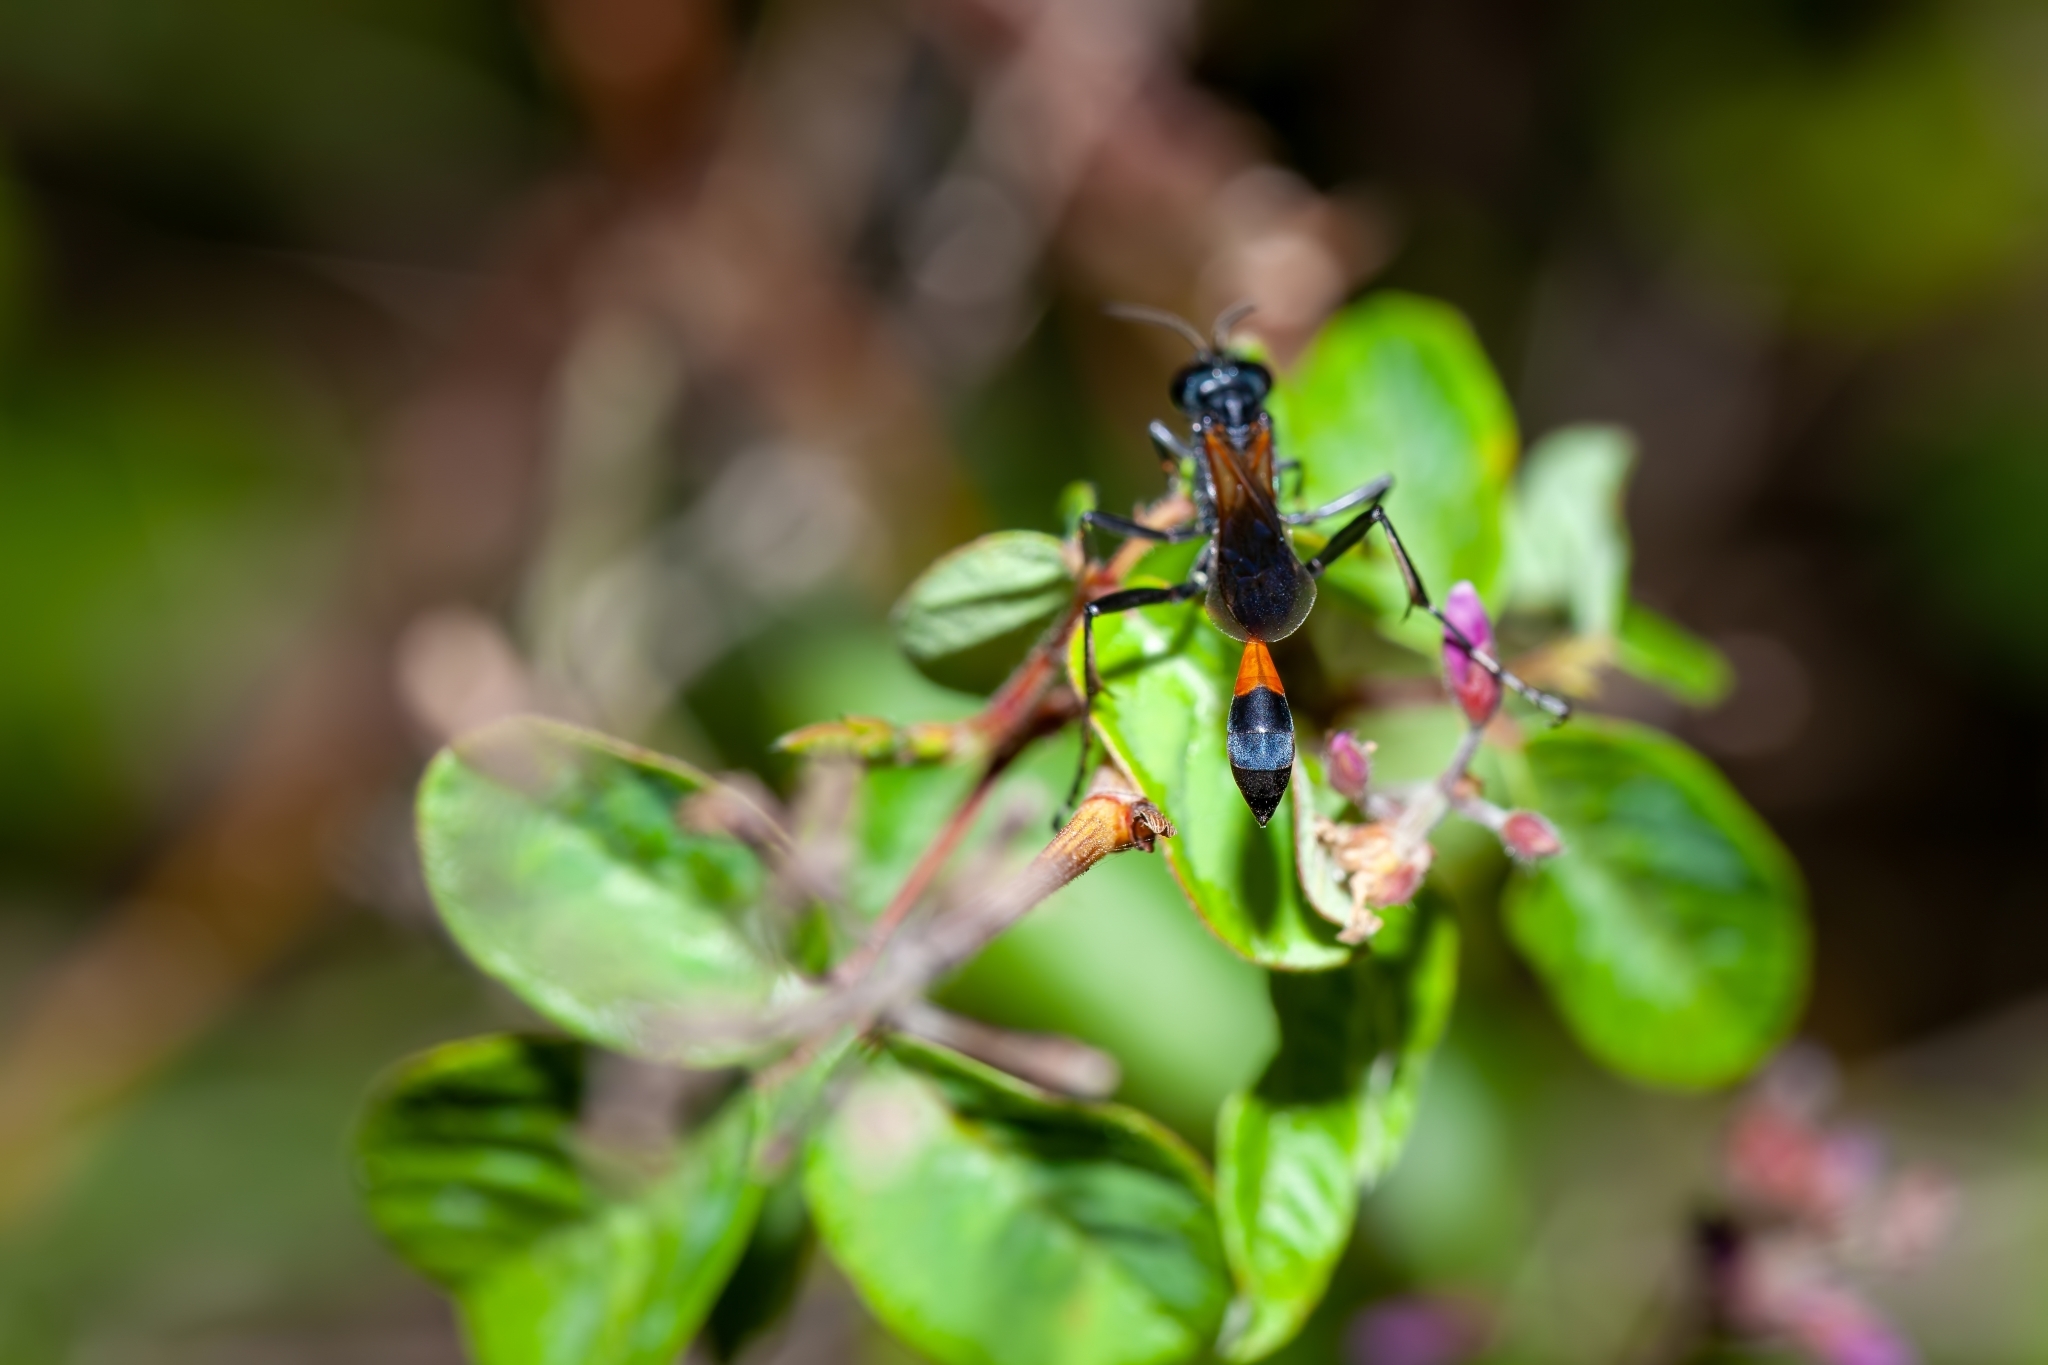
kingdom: Animalia
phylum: Arthropoda
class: Insecta
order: Hymenoptera
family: Sphecidae
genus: Ammophila
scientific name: Ammophila pictipennis
